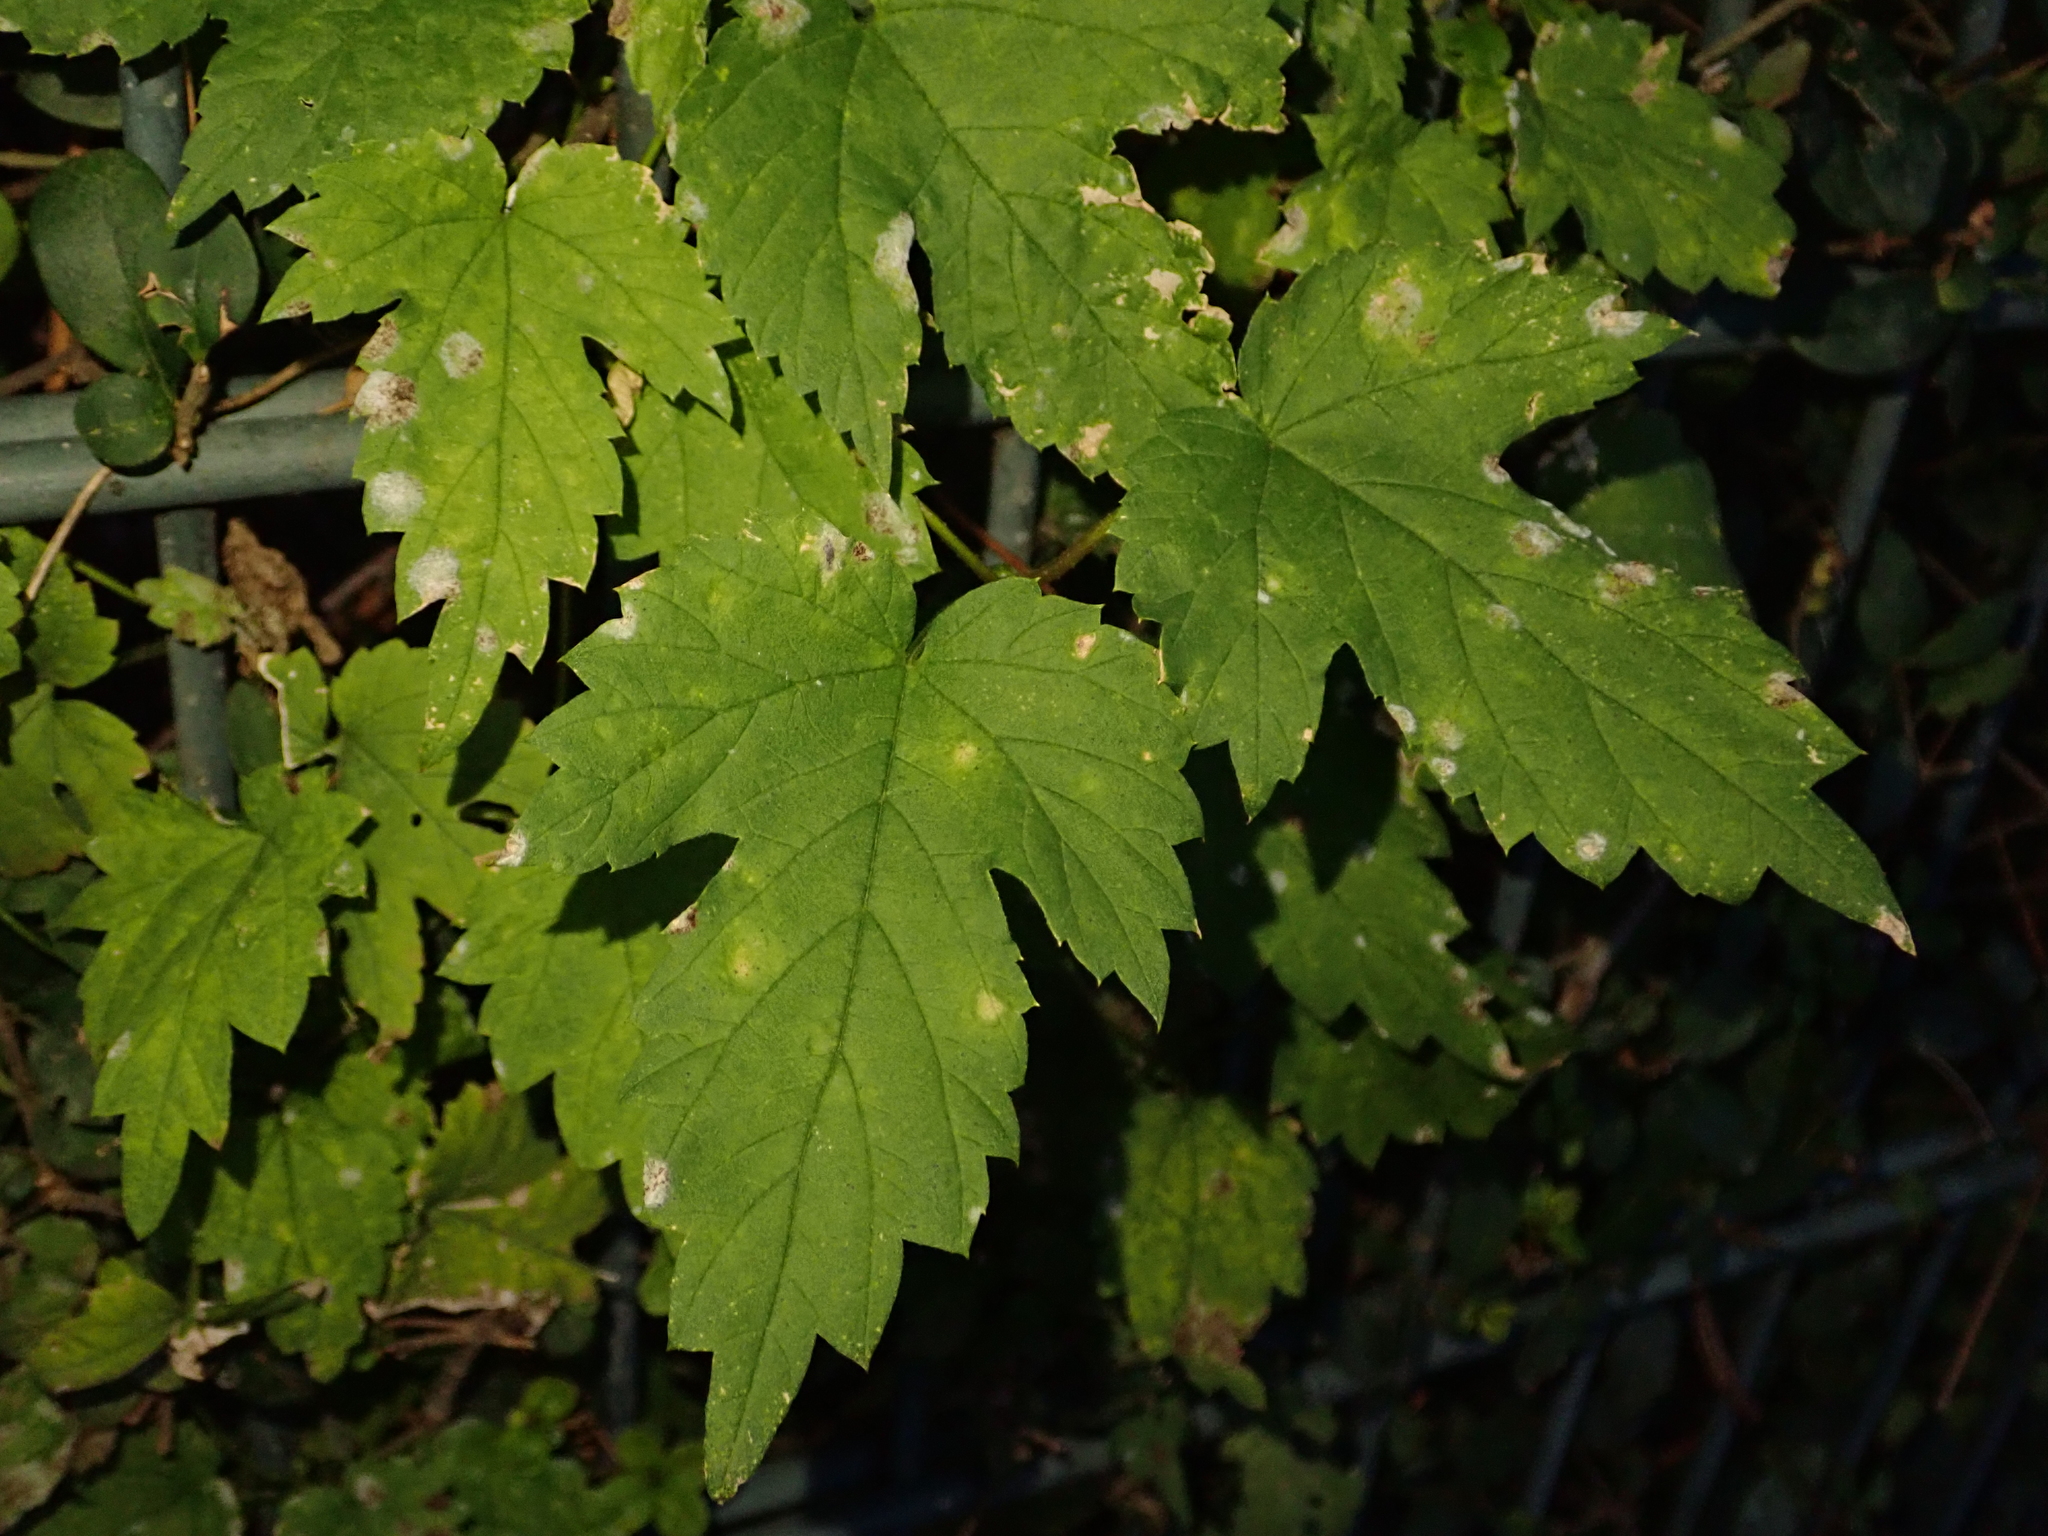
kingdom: Plantae
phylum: Tracheophyta
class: Magnoliopsida
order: Rosales
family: Cannabaceae
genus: Humulus
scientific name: Humulus lupulus
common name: Hop
